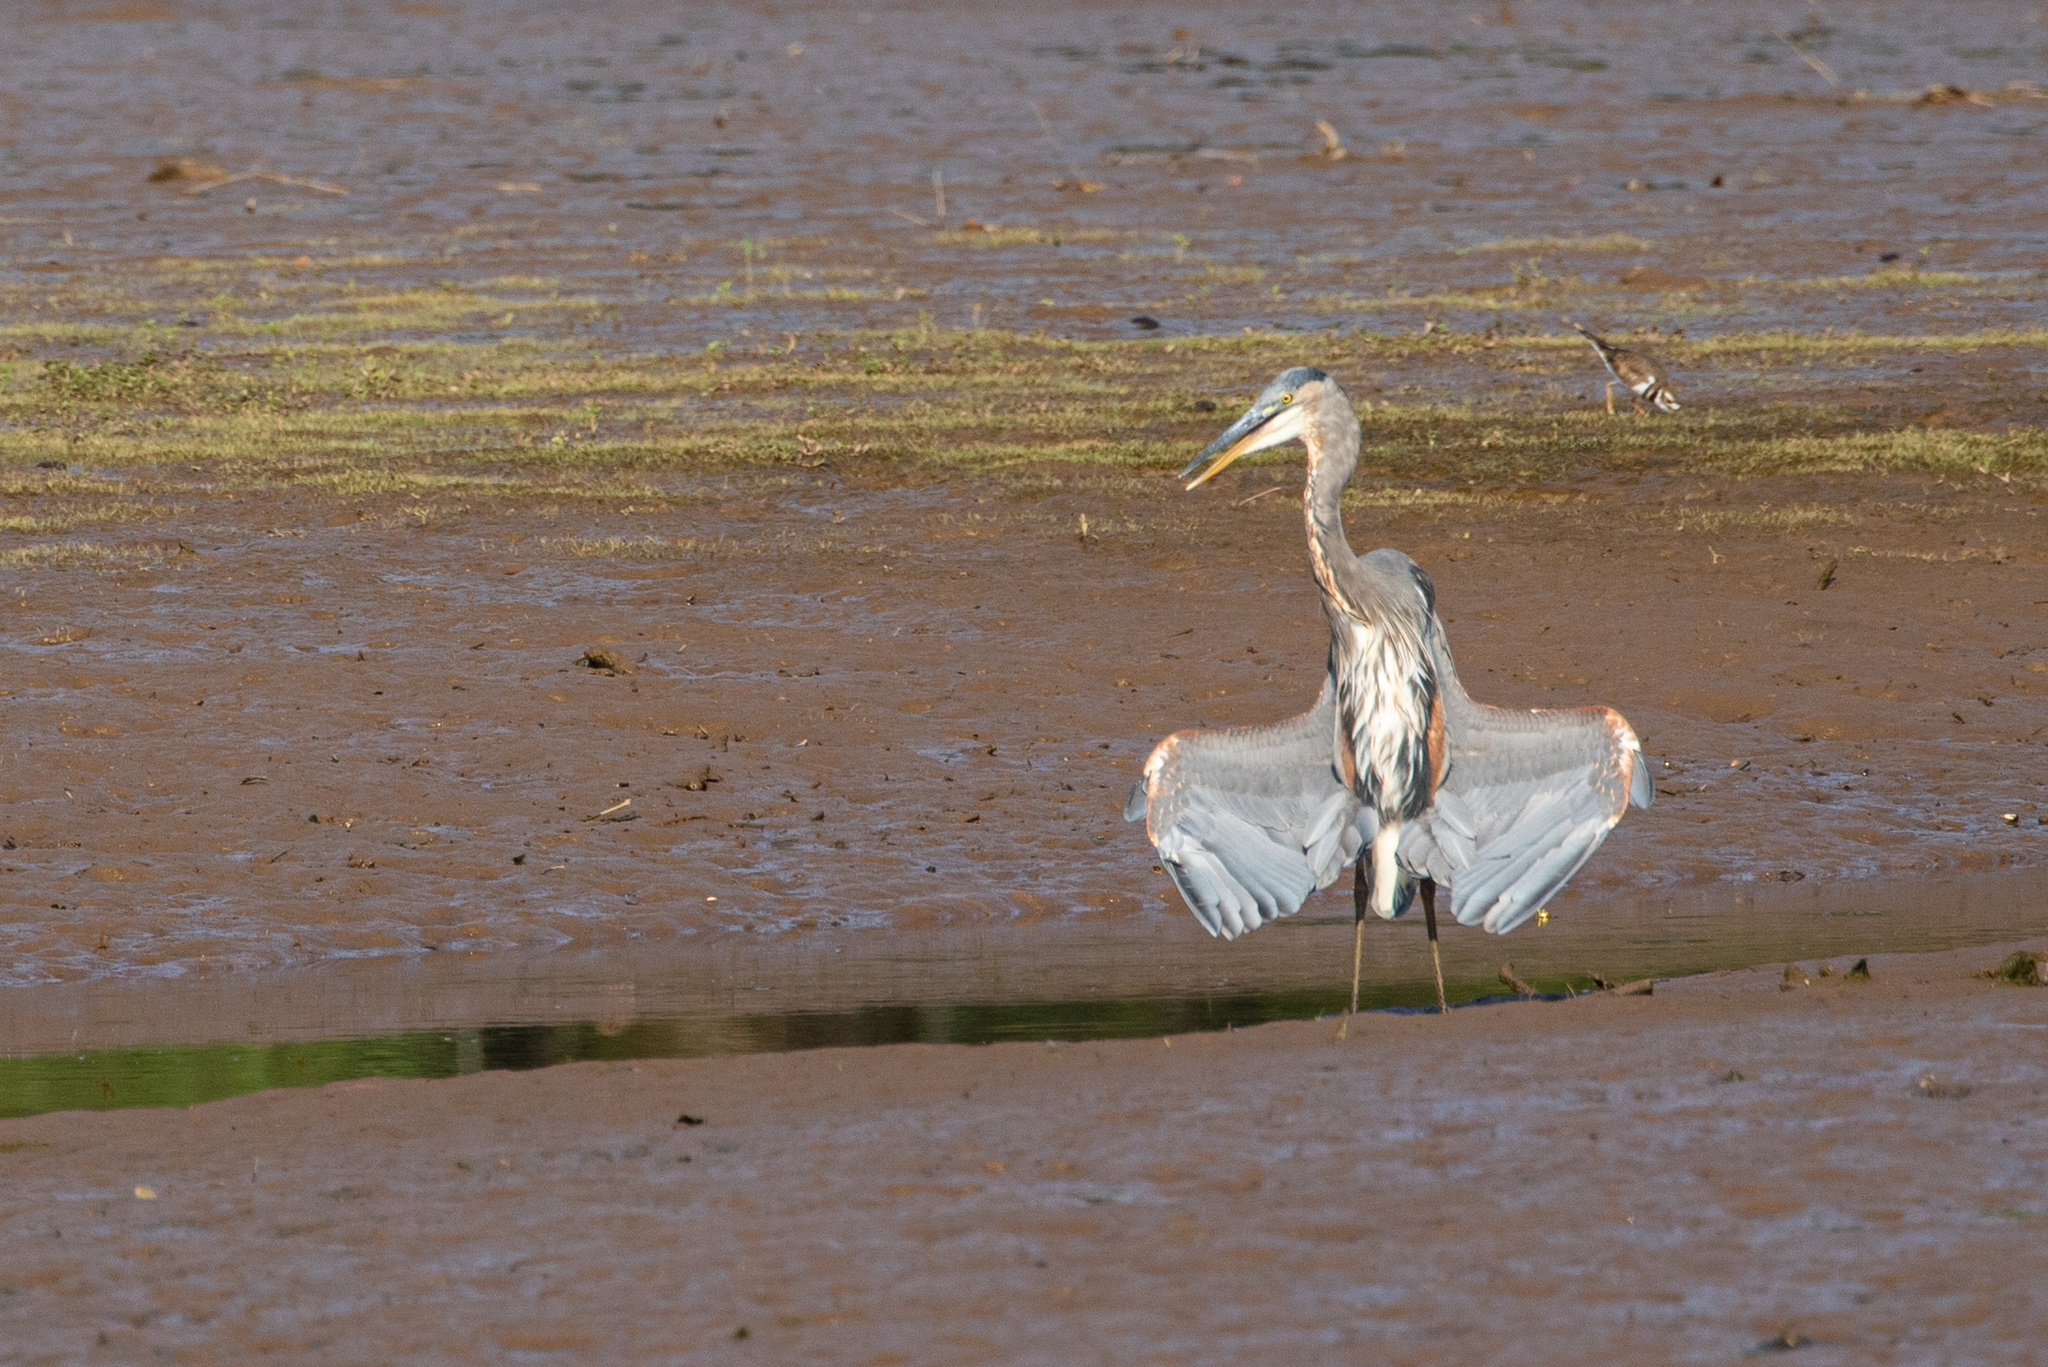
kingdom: Animalia
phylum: Chordata
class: Aves
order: Pelecaniformes
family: Ardeidae
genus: Ardea
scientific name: Ardea herodias
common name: Great blue heron
